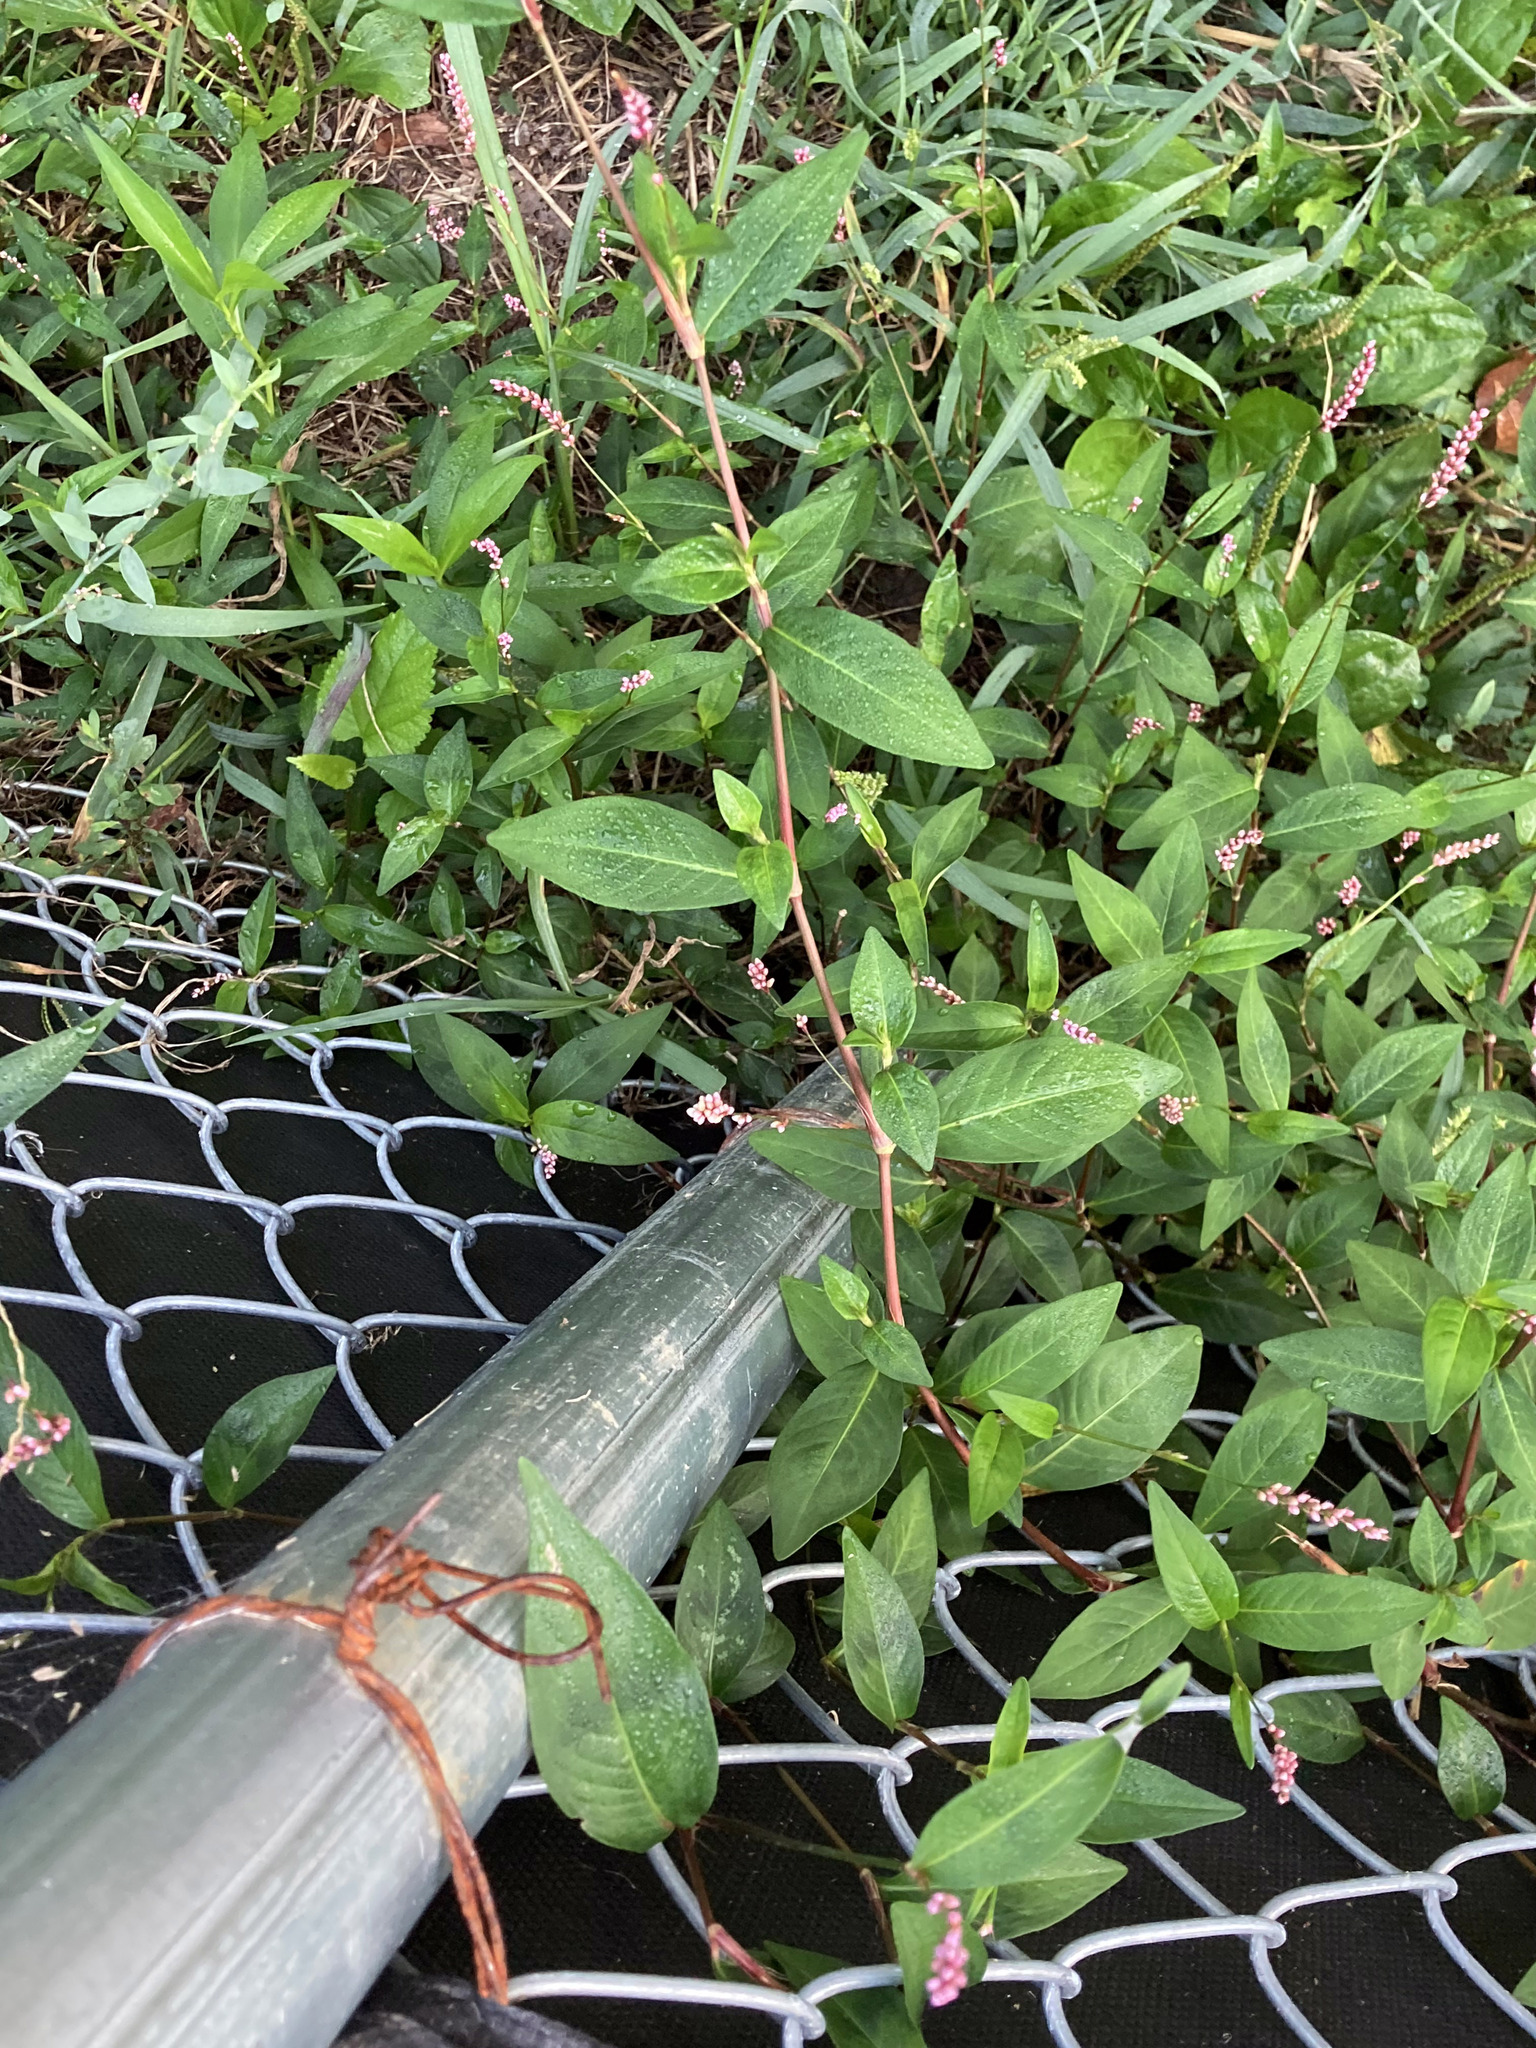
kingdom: Plantae
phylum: Tracheophyta
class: Magnoliopsida
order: Caryophyllales
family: Polygonaceae
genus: Persicaria
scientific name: Persicaria longiseta
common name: Bristly lady's-thumb
